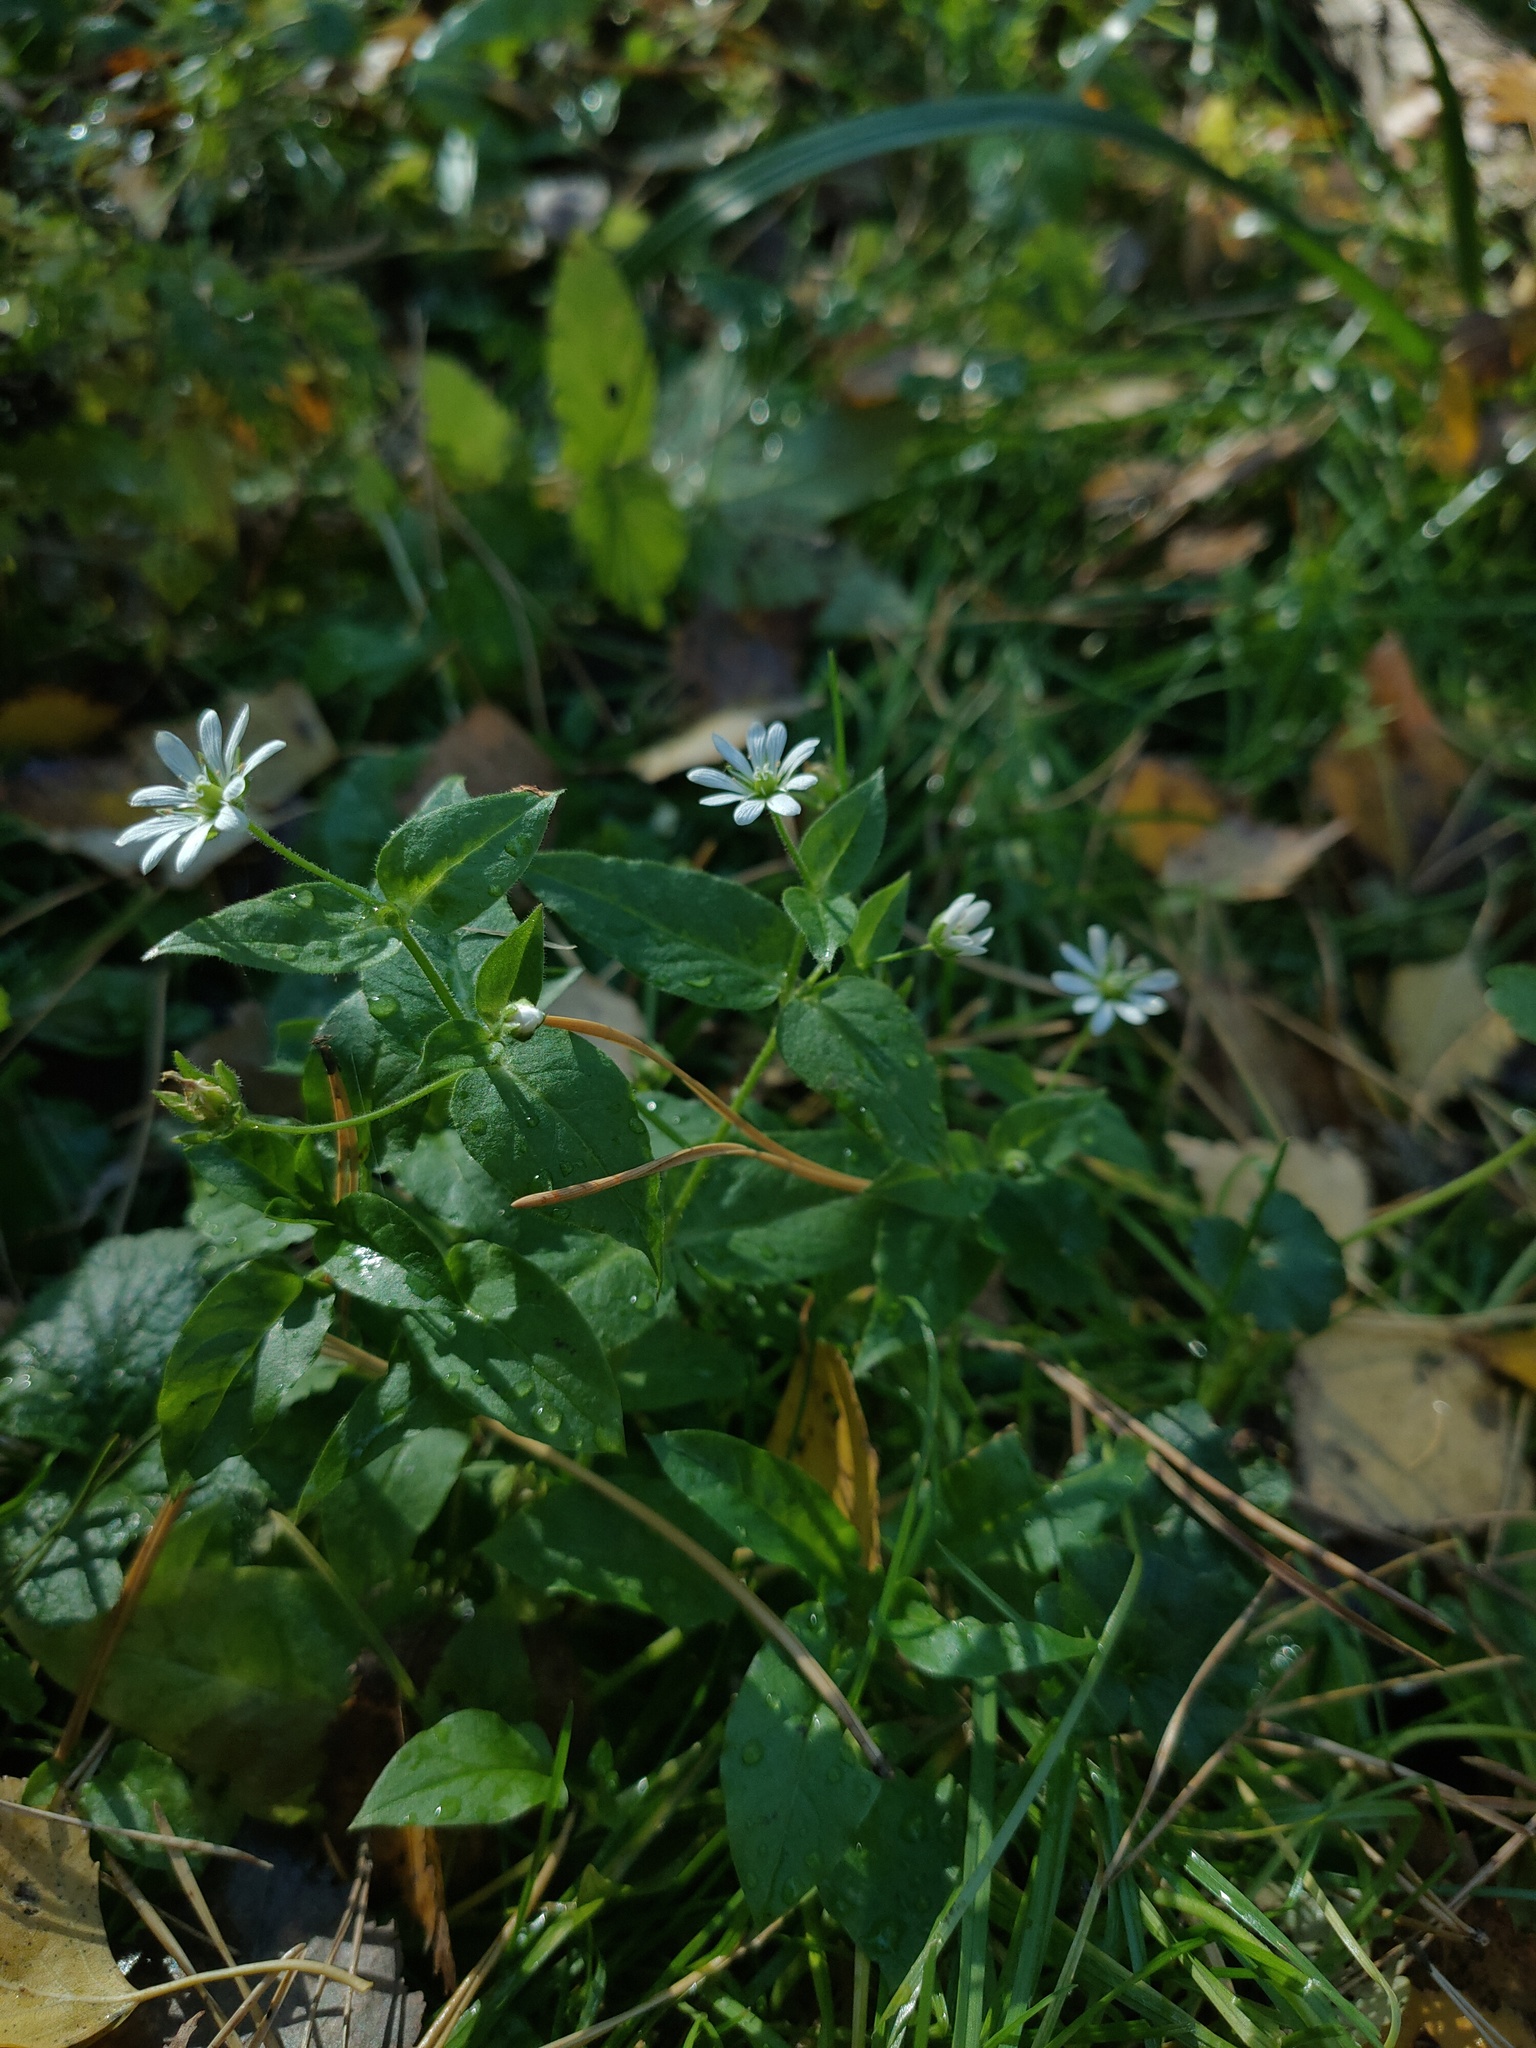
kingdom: Plantae
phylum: Tracheophyta
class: Magnoliopsida
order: Caryophyllales
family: Caryophyllaceae
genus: Stellaria
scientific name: Stellaria aquatica
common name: Water chickweed
